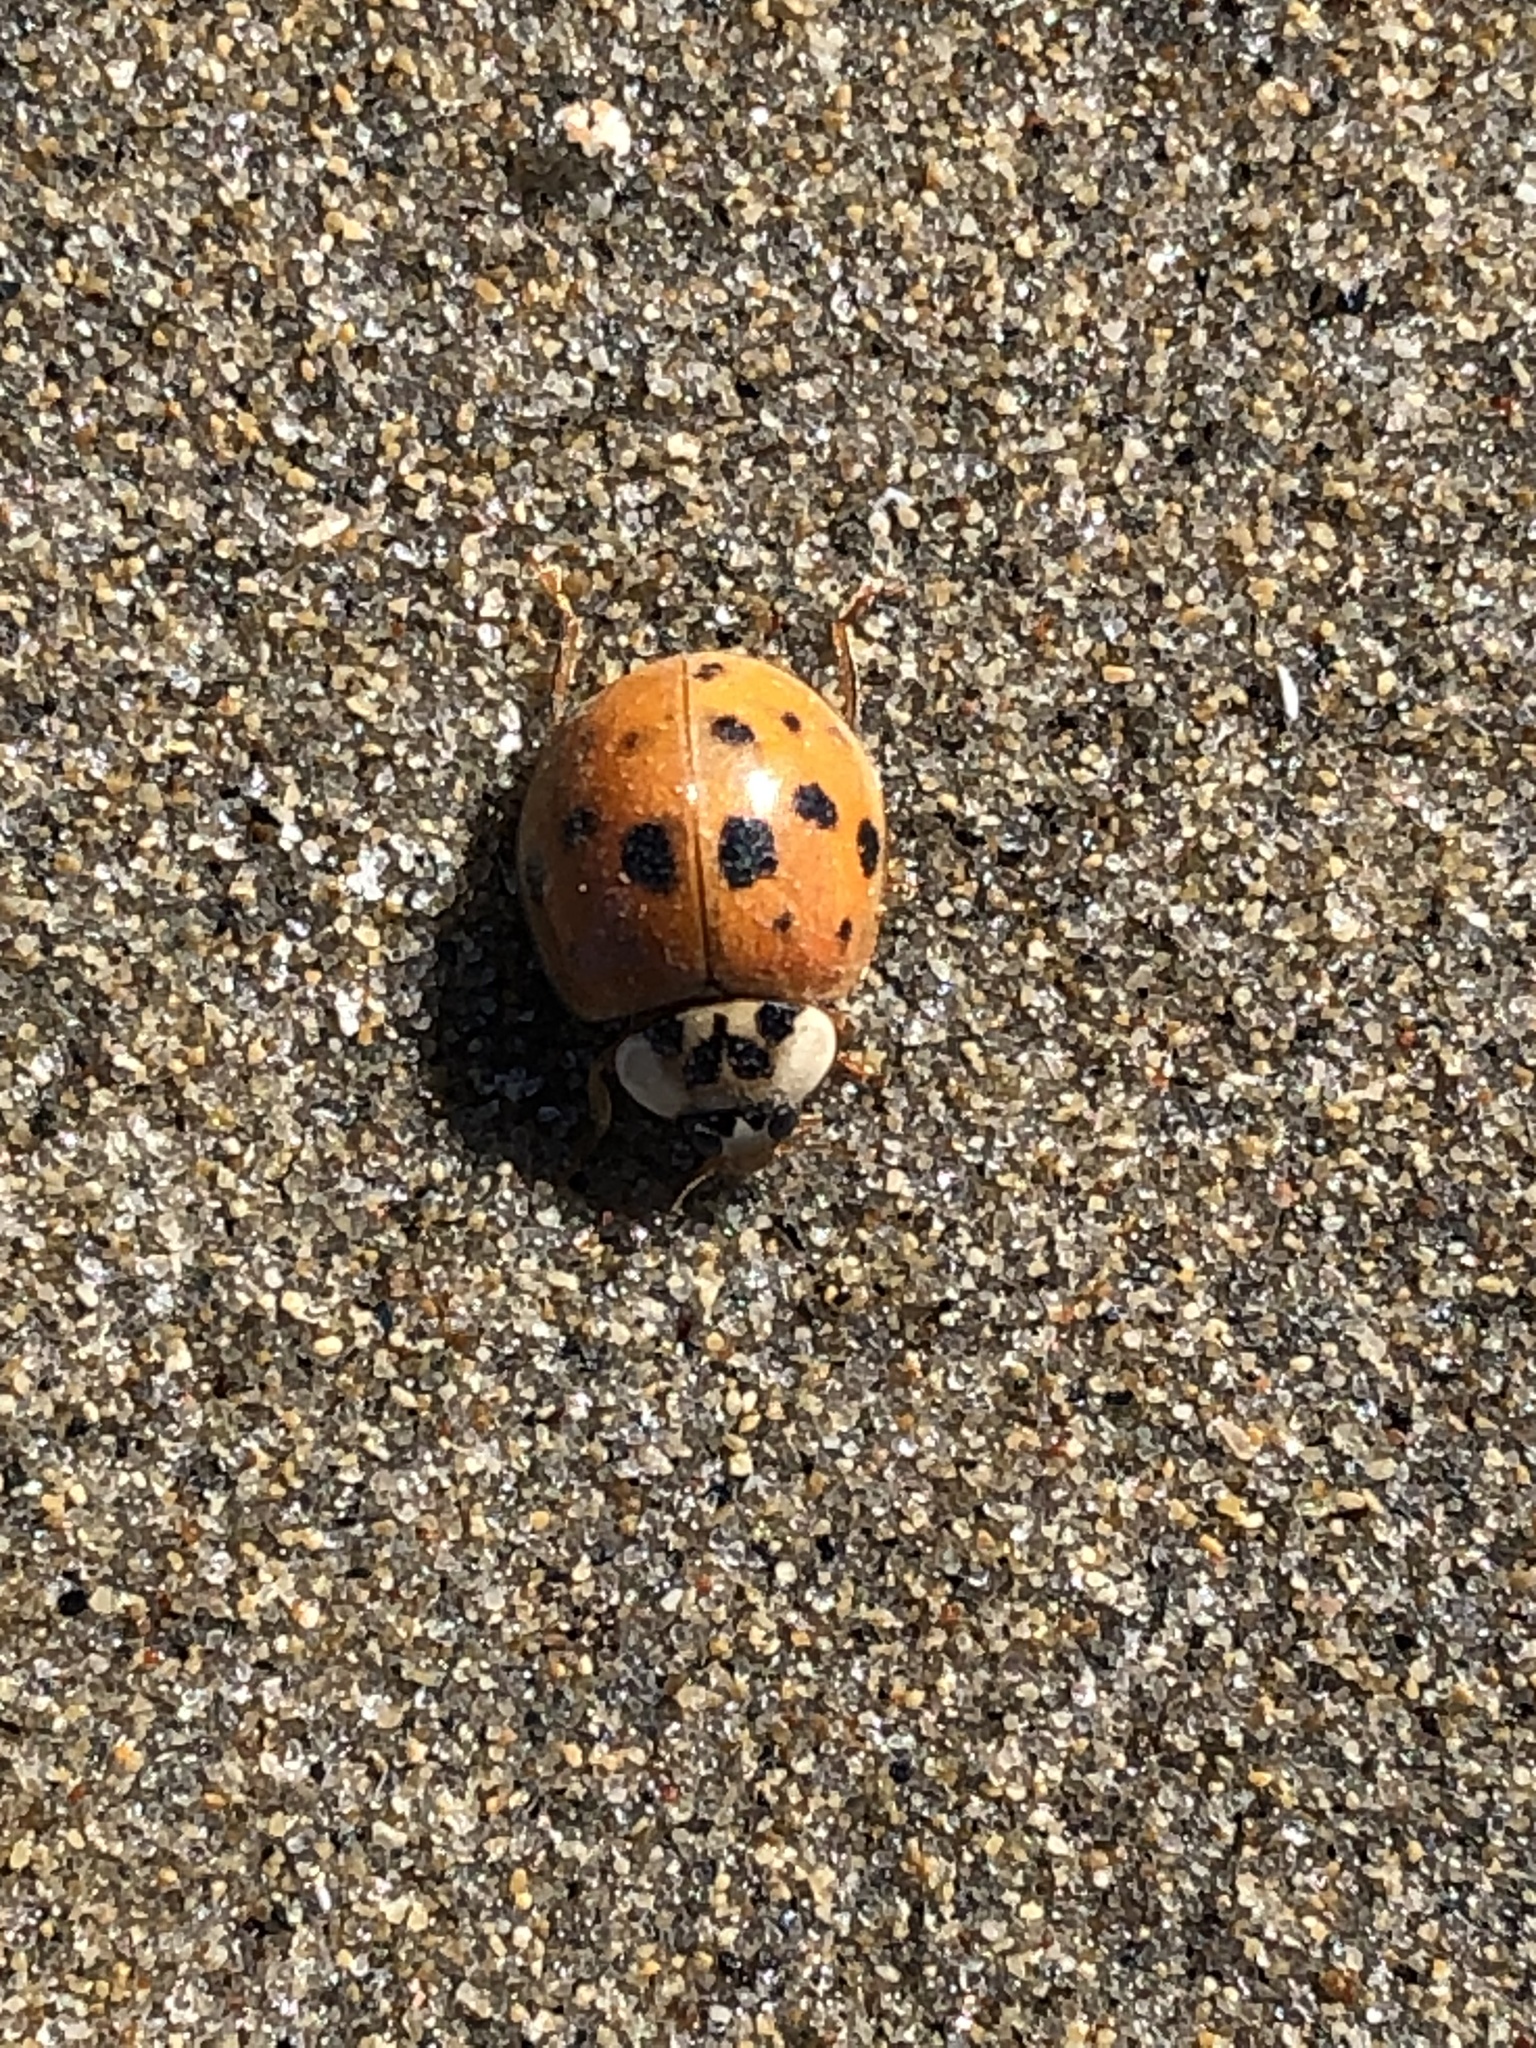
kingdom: Animalia
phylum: Arthropoda
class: Insecta
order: Coleoptera
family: Coccinellidae
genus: Harmonia
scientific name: Harmonia axyridis
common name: Harlequin ladybird
